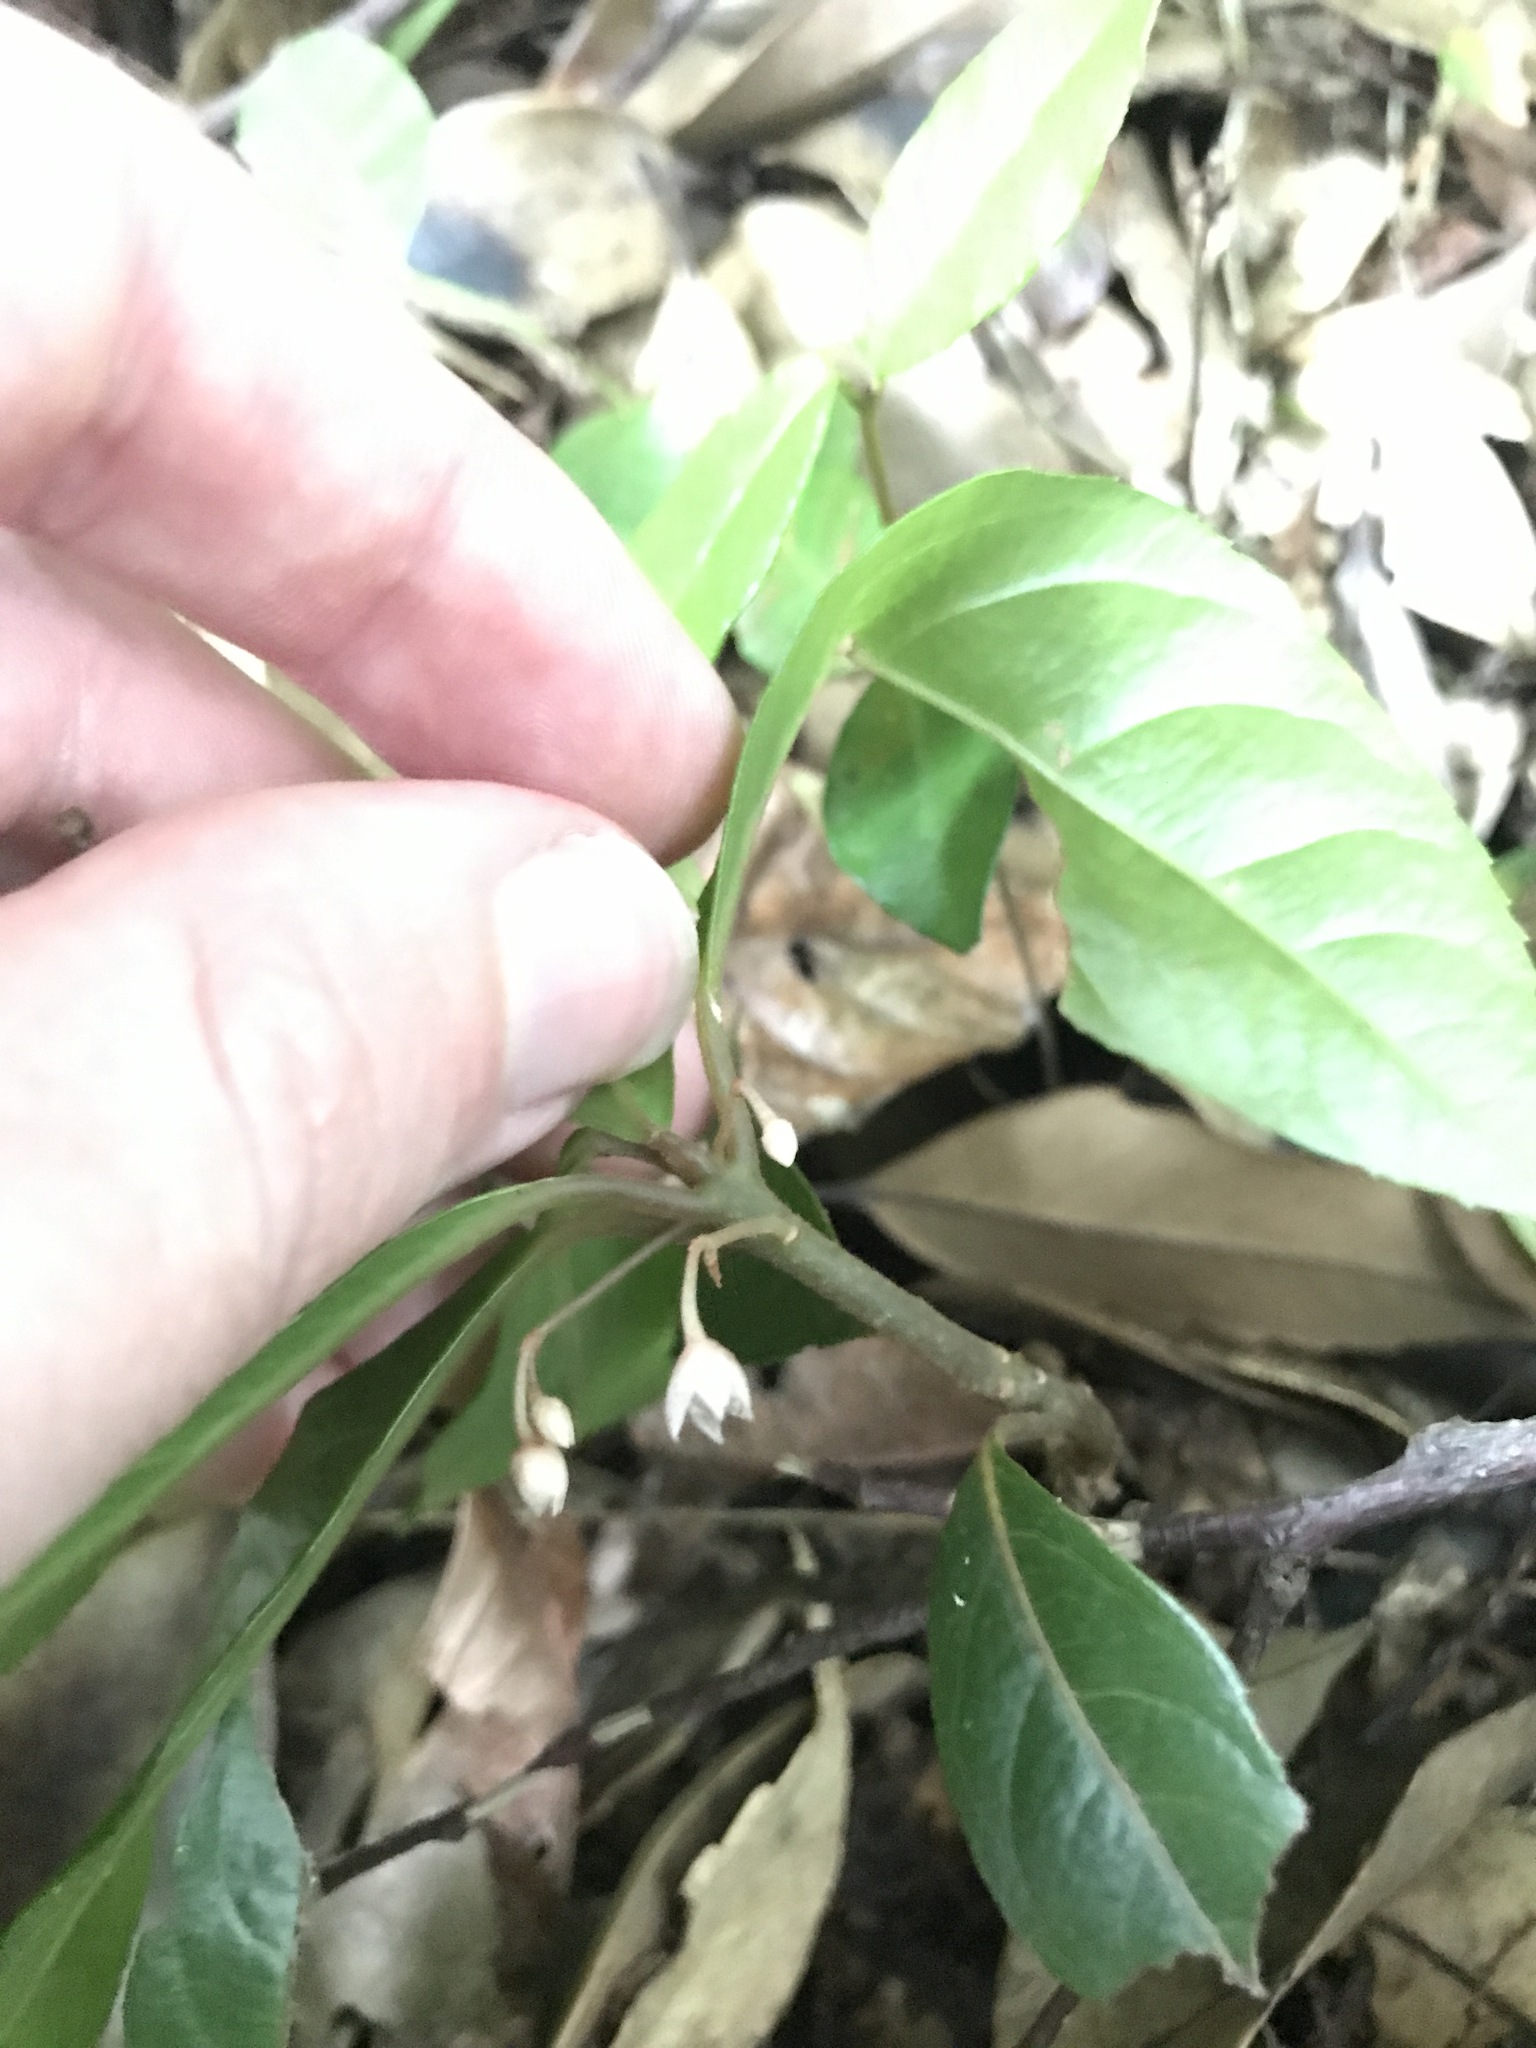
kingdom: Plantae
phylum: Tracheophyta
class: Magnoliopsida
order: Ericales
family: Primulaceae
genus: Ardisia
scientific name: Ardisia japonica
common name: Marlberry
